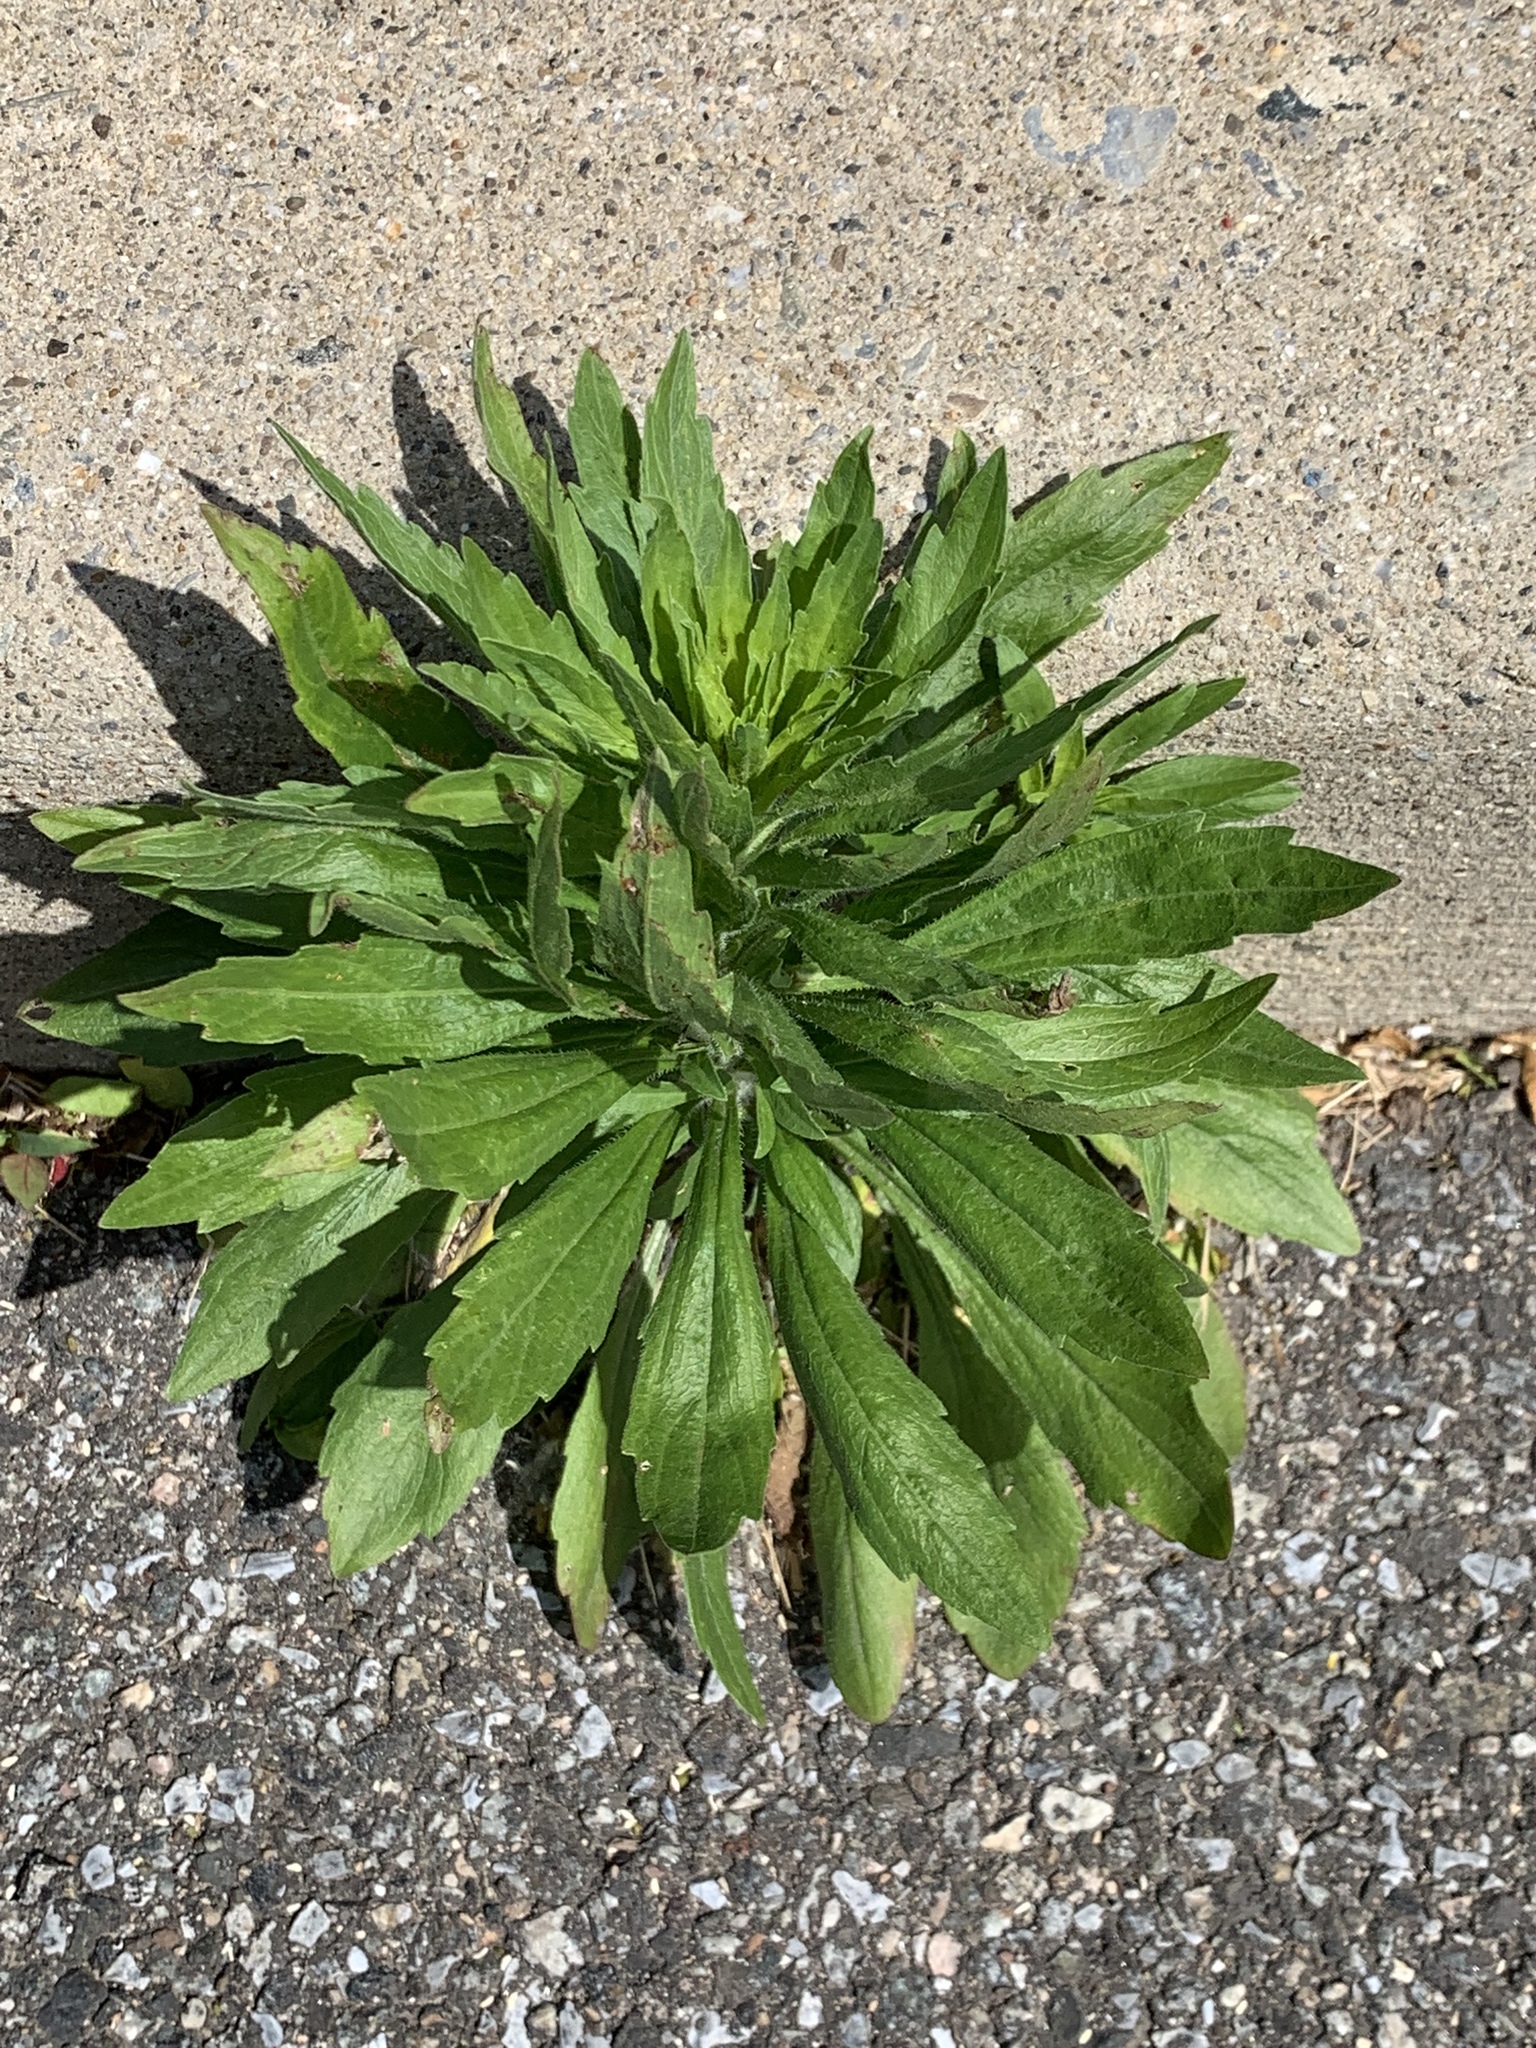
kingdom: Plantae
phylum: Tracheophyta
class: Magnoliopsida
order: Asterales
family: Asteraceae
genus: Erigeron
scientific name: Erigeron canadensis
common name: Canadian fleabane
